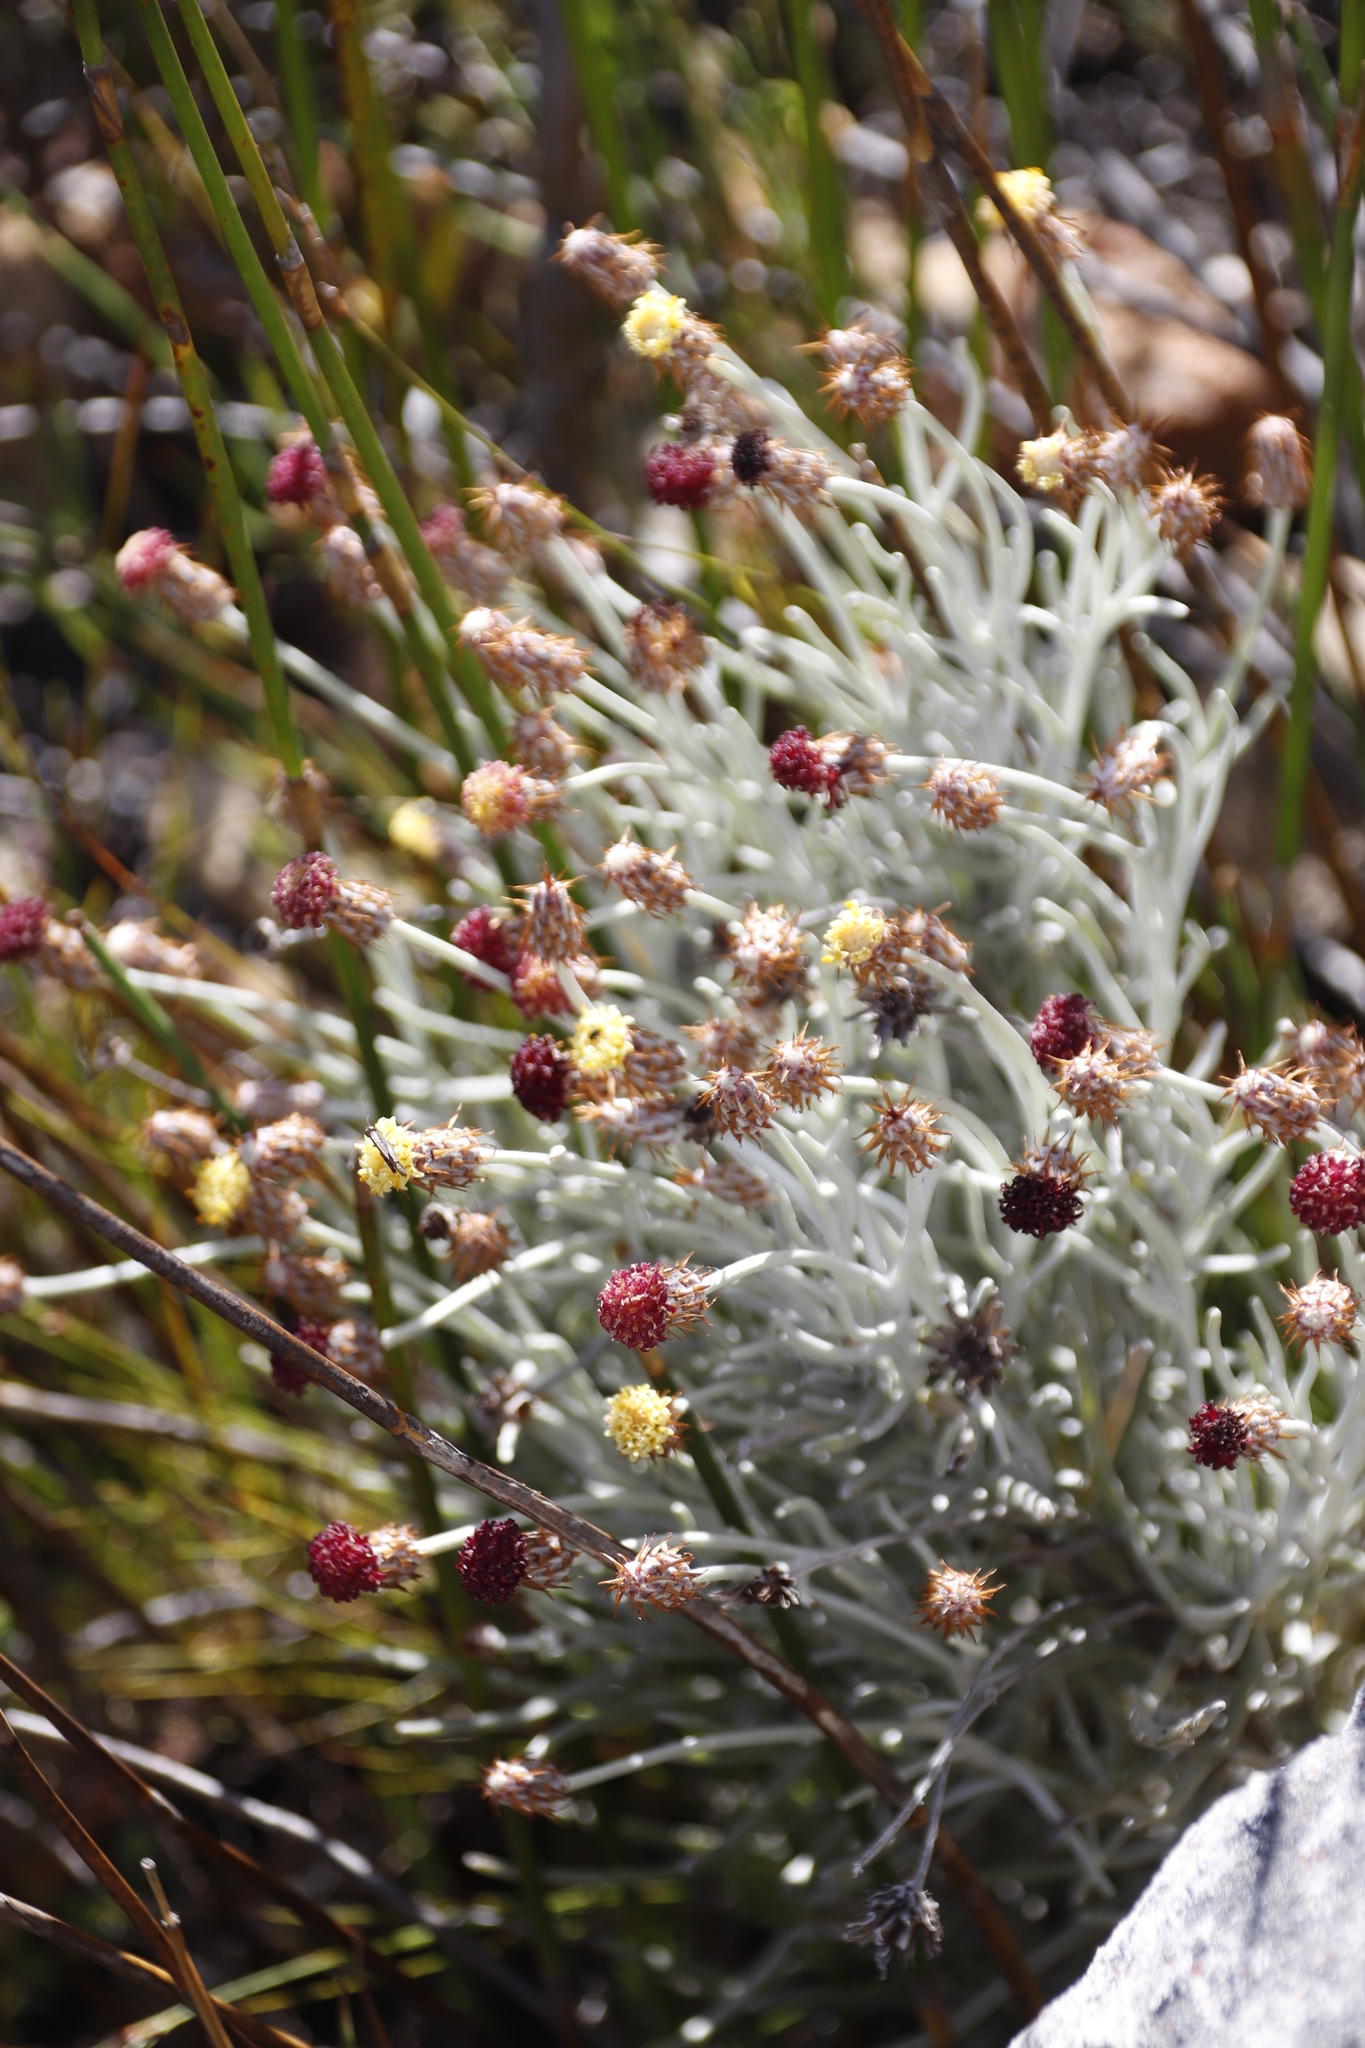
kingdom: Plantae
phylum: Tracheophyta
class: Magnoliopsida
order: Asterales
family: Asteraceae
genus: Syncarpha
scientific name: Syncarpha gnaphaloides
